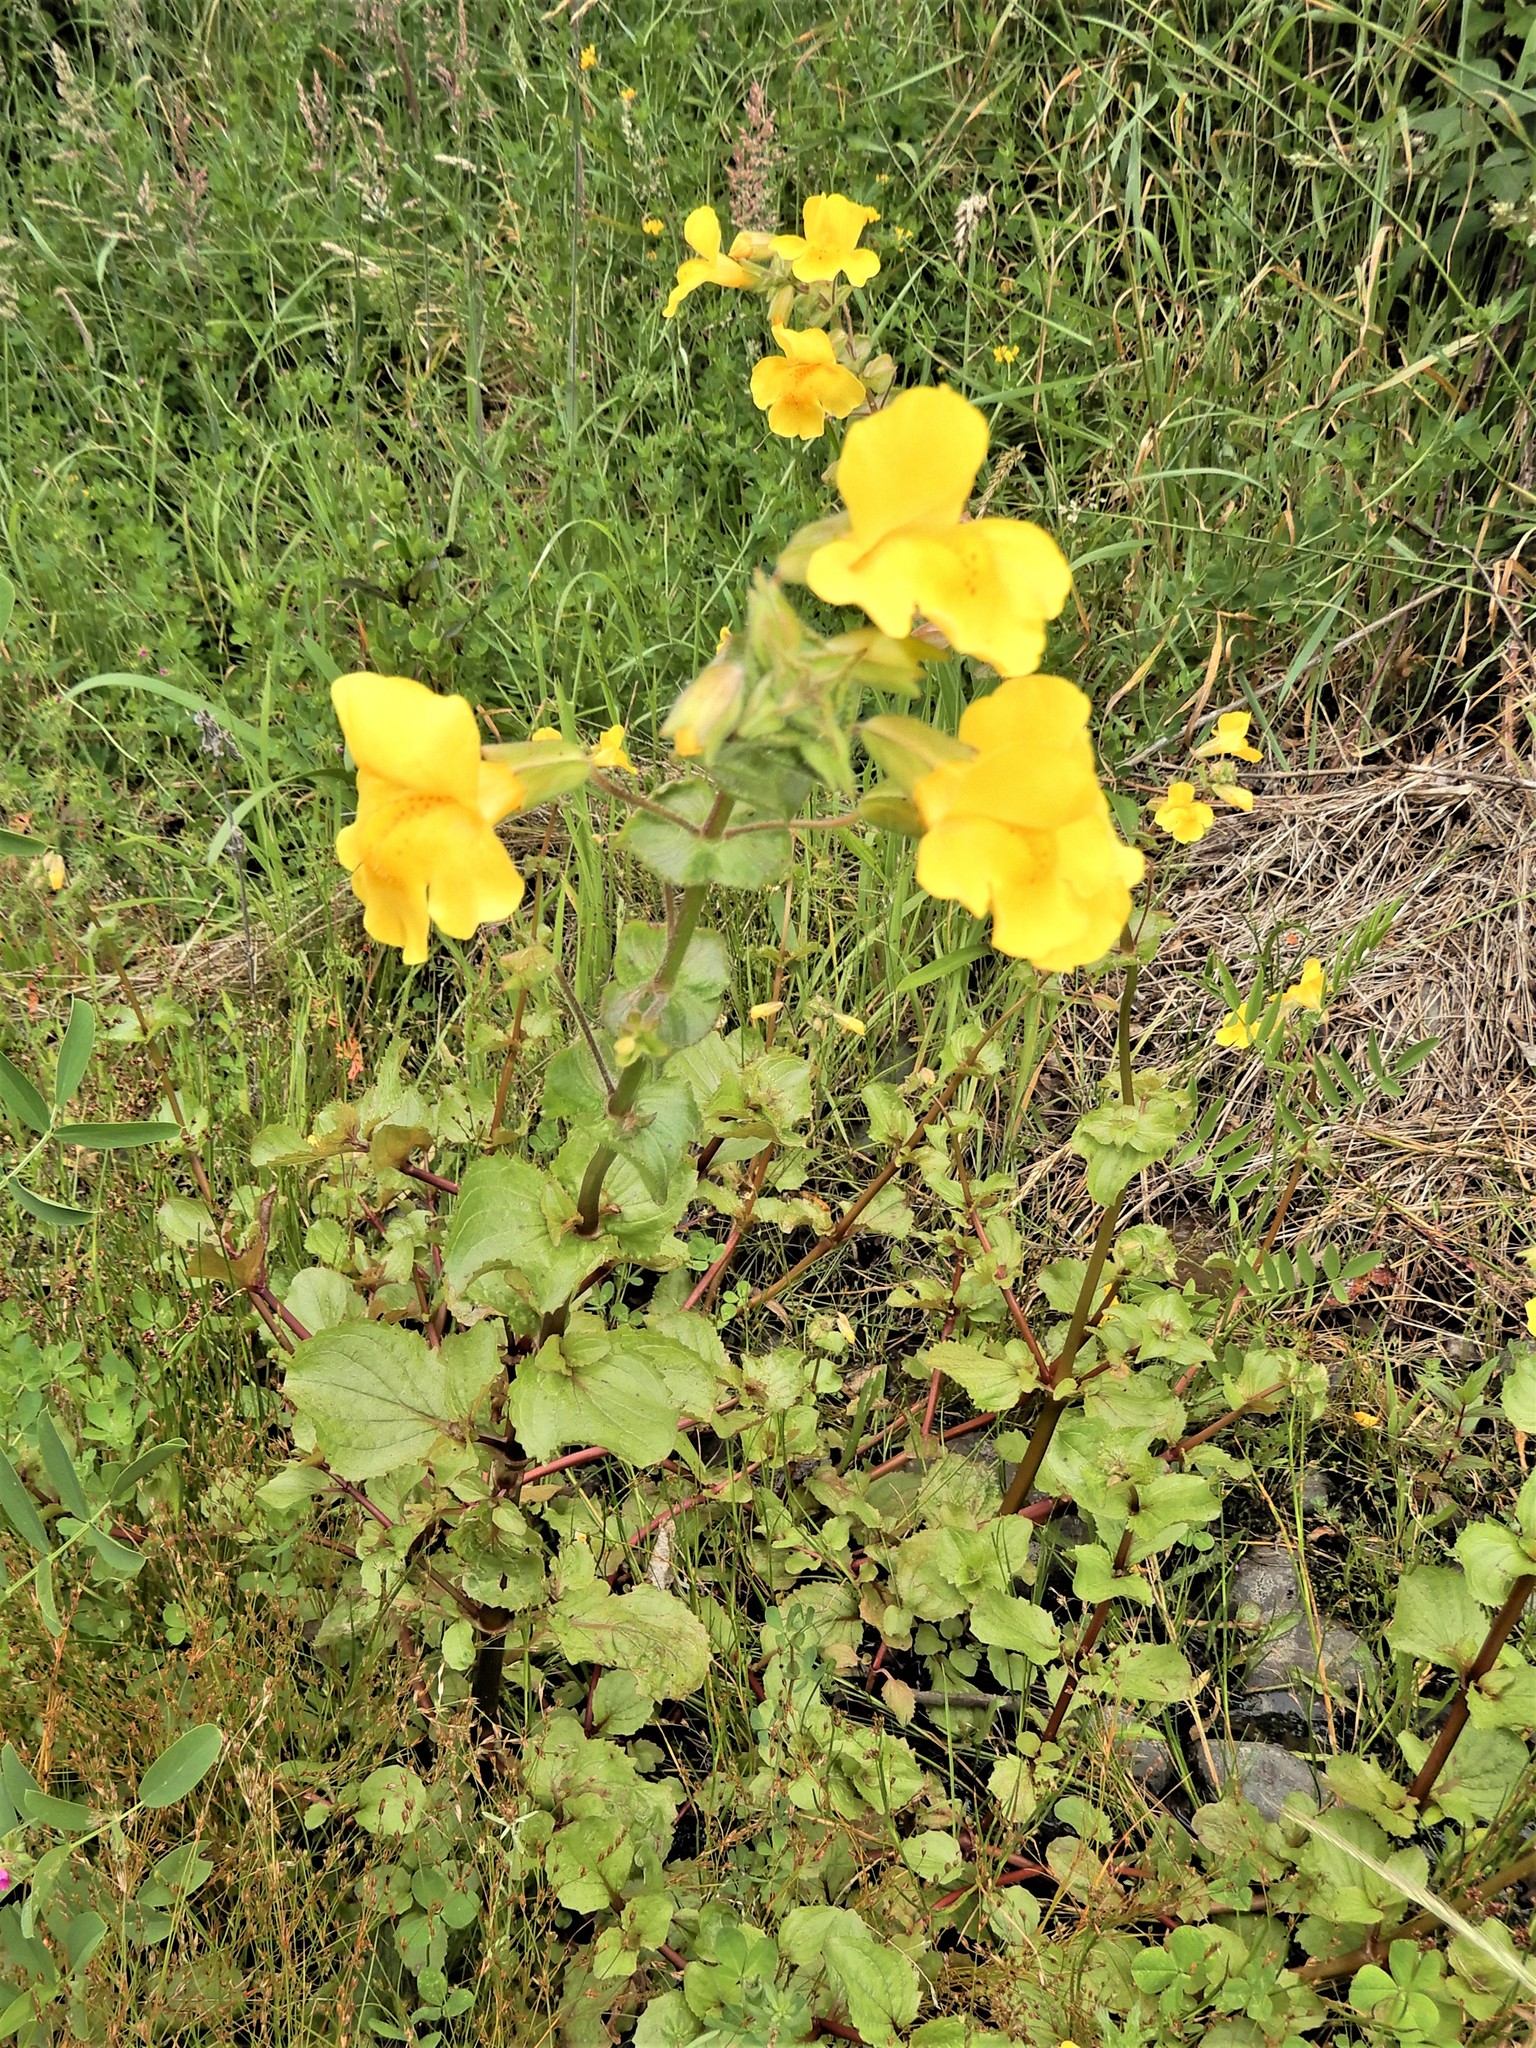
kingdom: Plantae
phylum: Tracheophyta
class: Magnoliopsida
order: Lamiales
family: Phrymaceae
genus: Erythranthe
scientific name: Erythranthe guttata
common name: Monkeyflower
